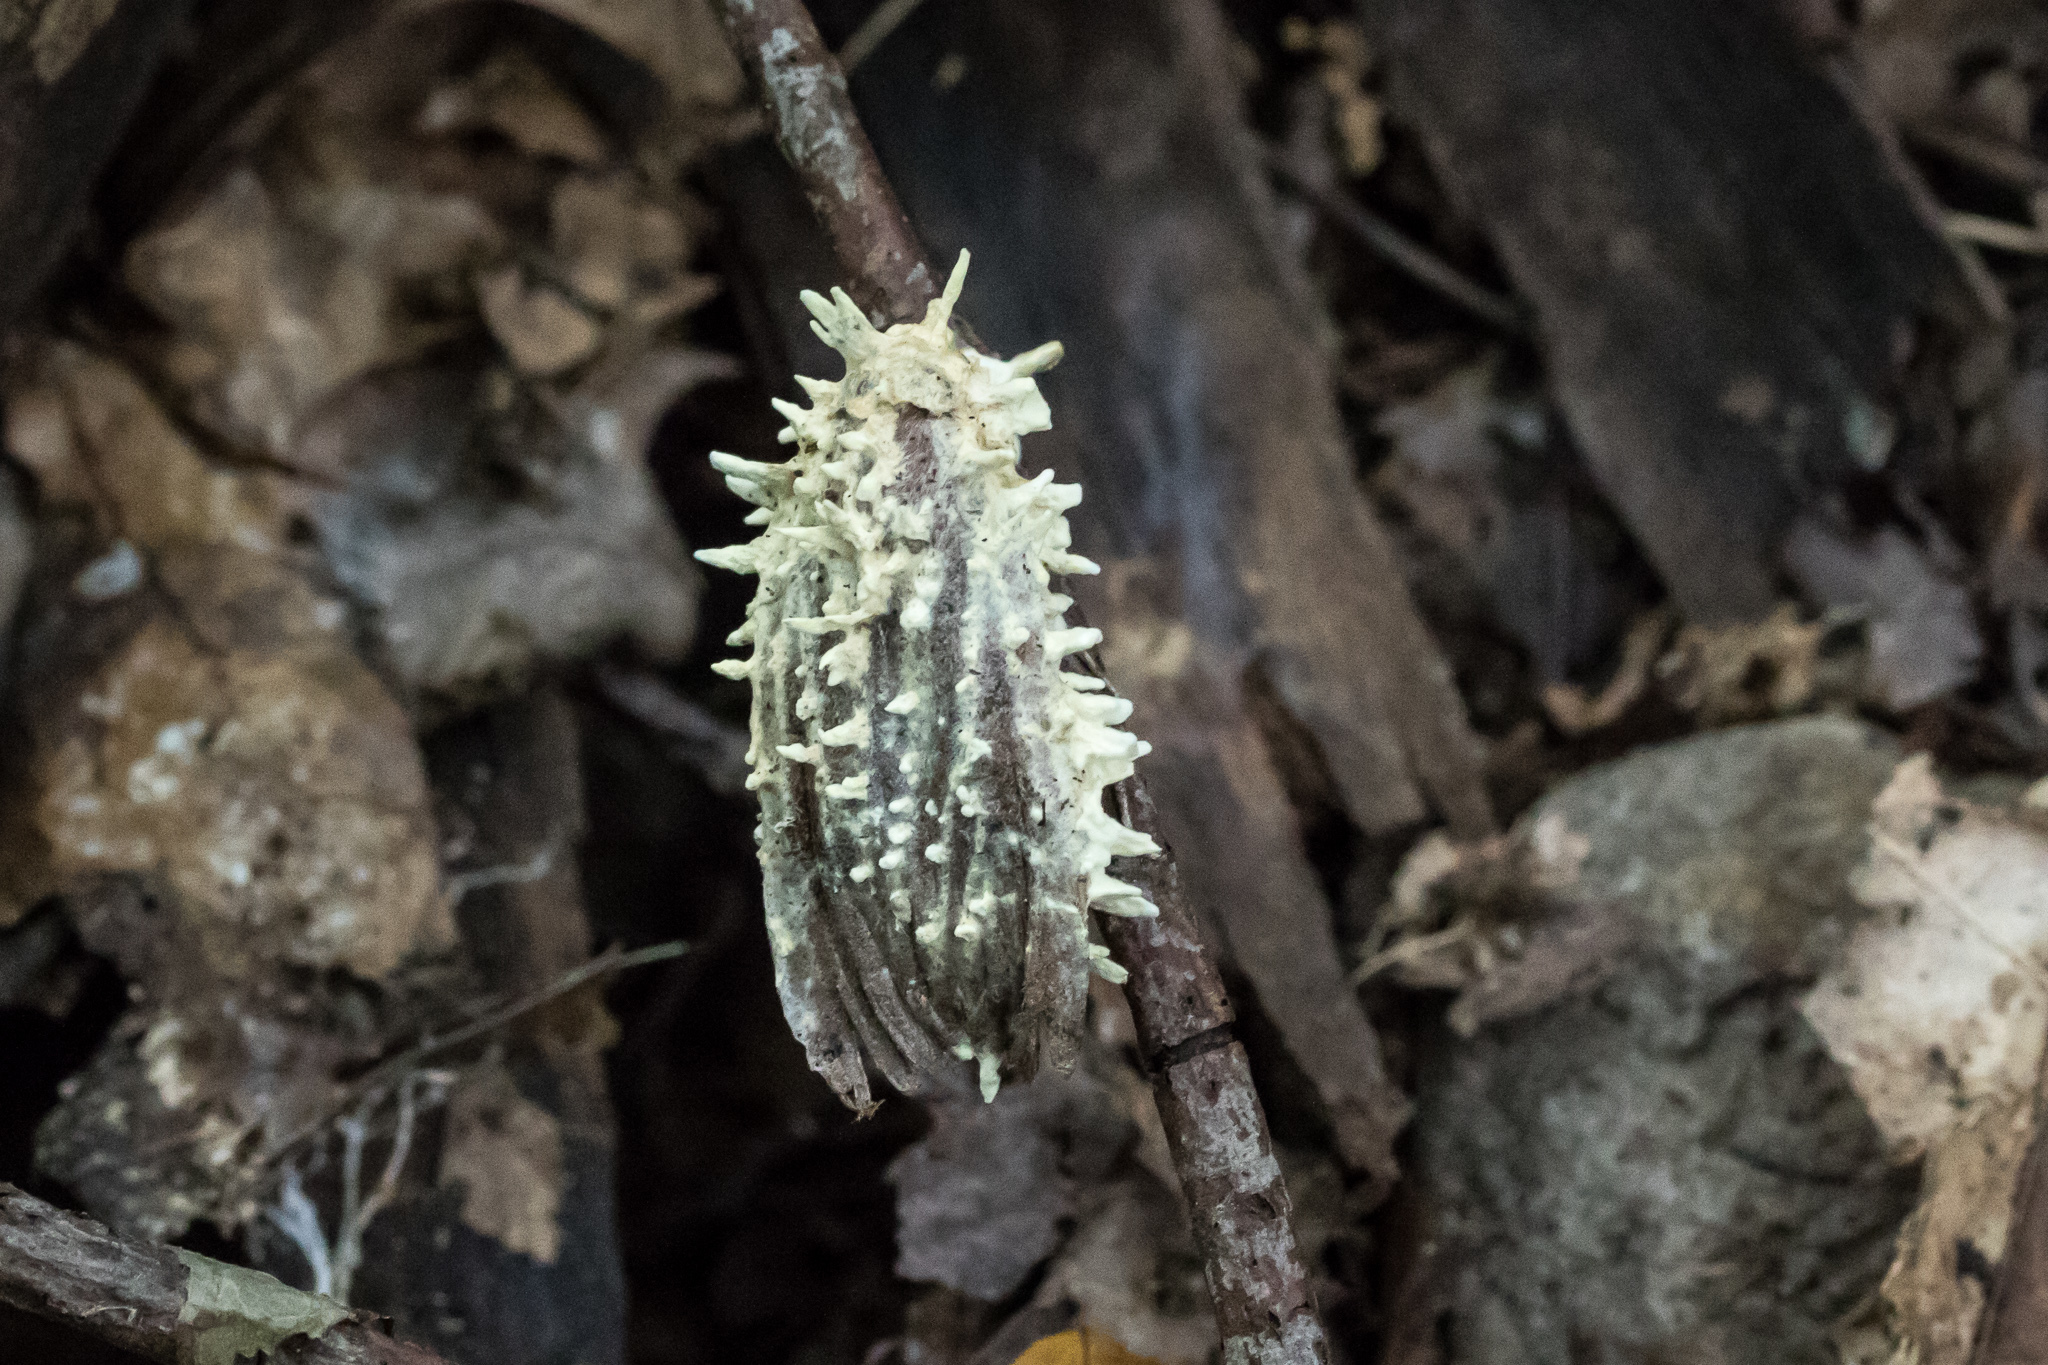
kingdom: Fungi
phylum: Ascomycota
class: Sordariomycetes
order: Hypocreales
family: Cordycipitaceae
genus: Akanthomyces
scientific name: Akanthomyces aculeatus
